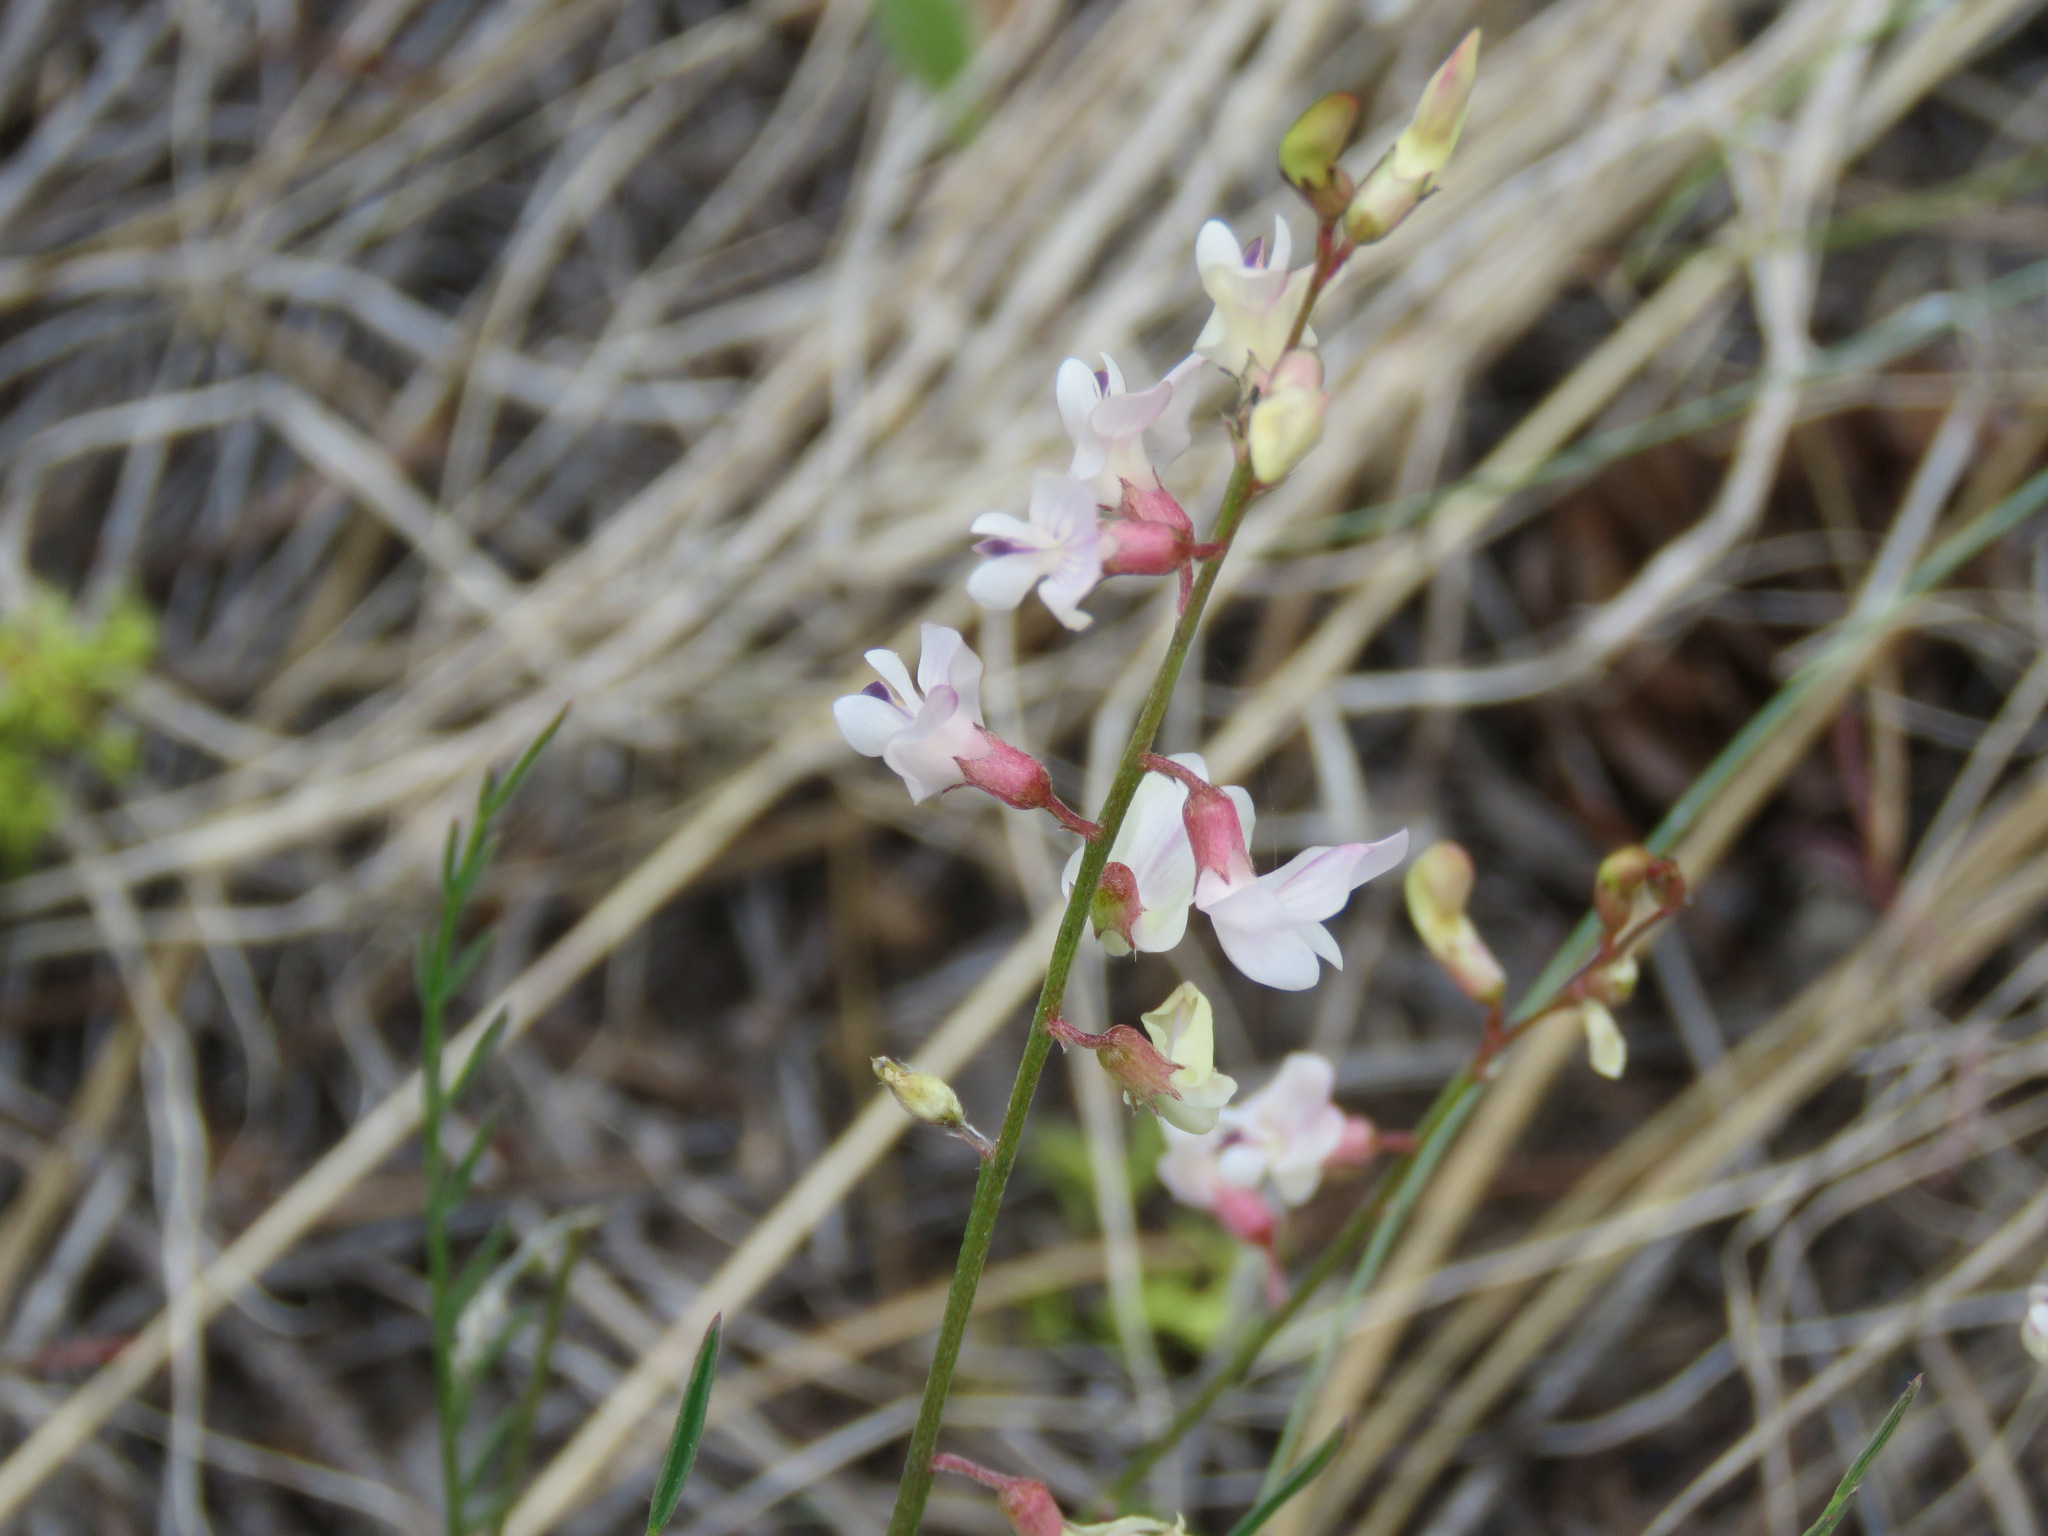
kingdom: Plantae
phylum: Tracheophyta
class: Magnoliopsida
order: Fabales
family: Fabaceae
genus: Astragalus
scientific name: Astragalus miser
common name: Timber milkvetch
